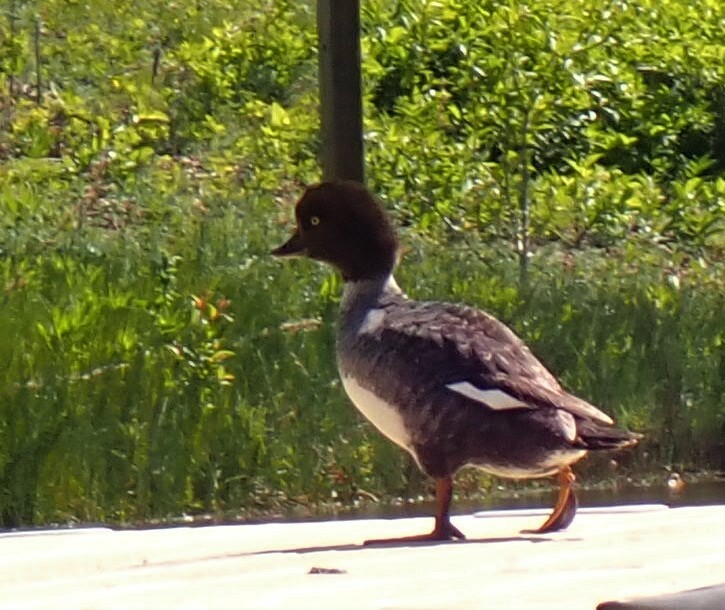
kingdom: Animalia
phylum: Chordata
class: Aves
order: Anseriformes
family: Anatidae
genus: Bucephala
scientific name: Bucephala islandica
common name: Barrow's goldeneye
